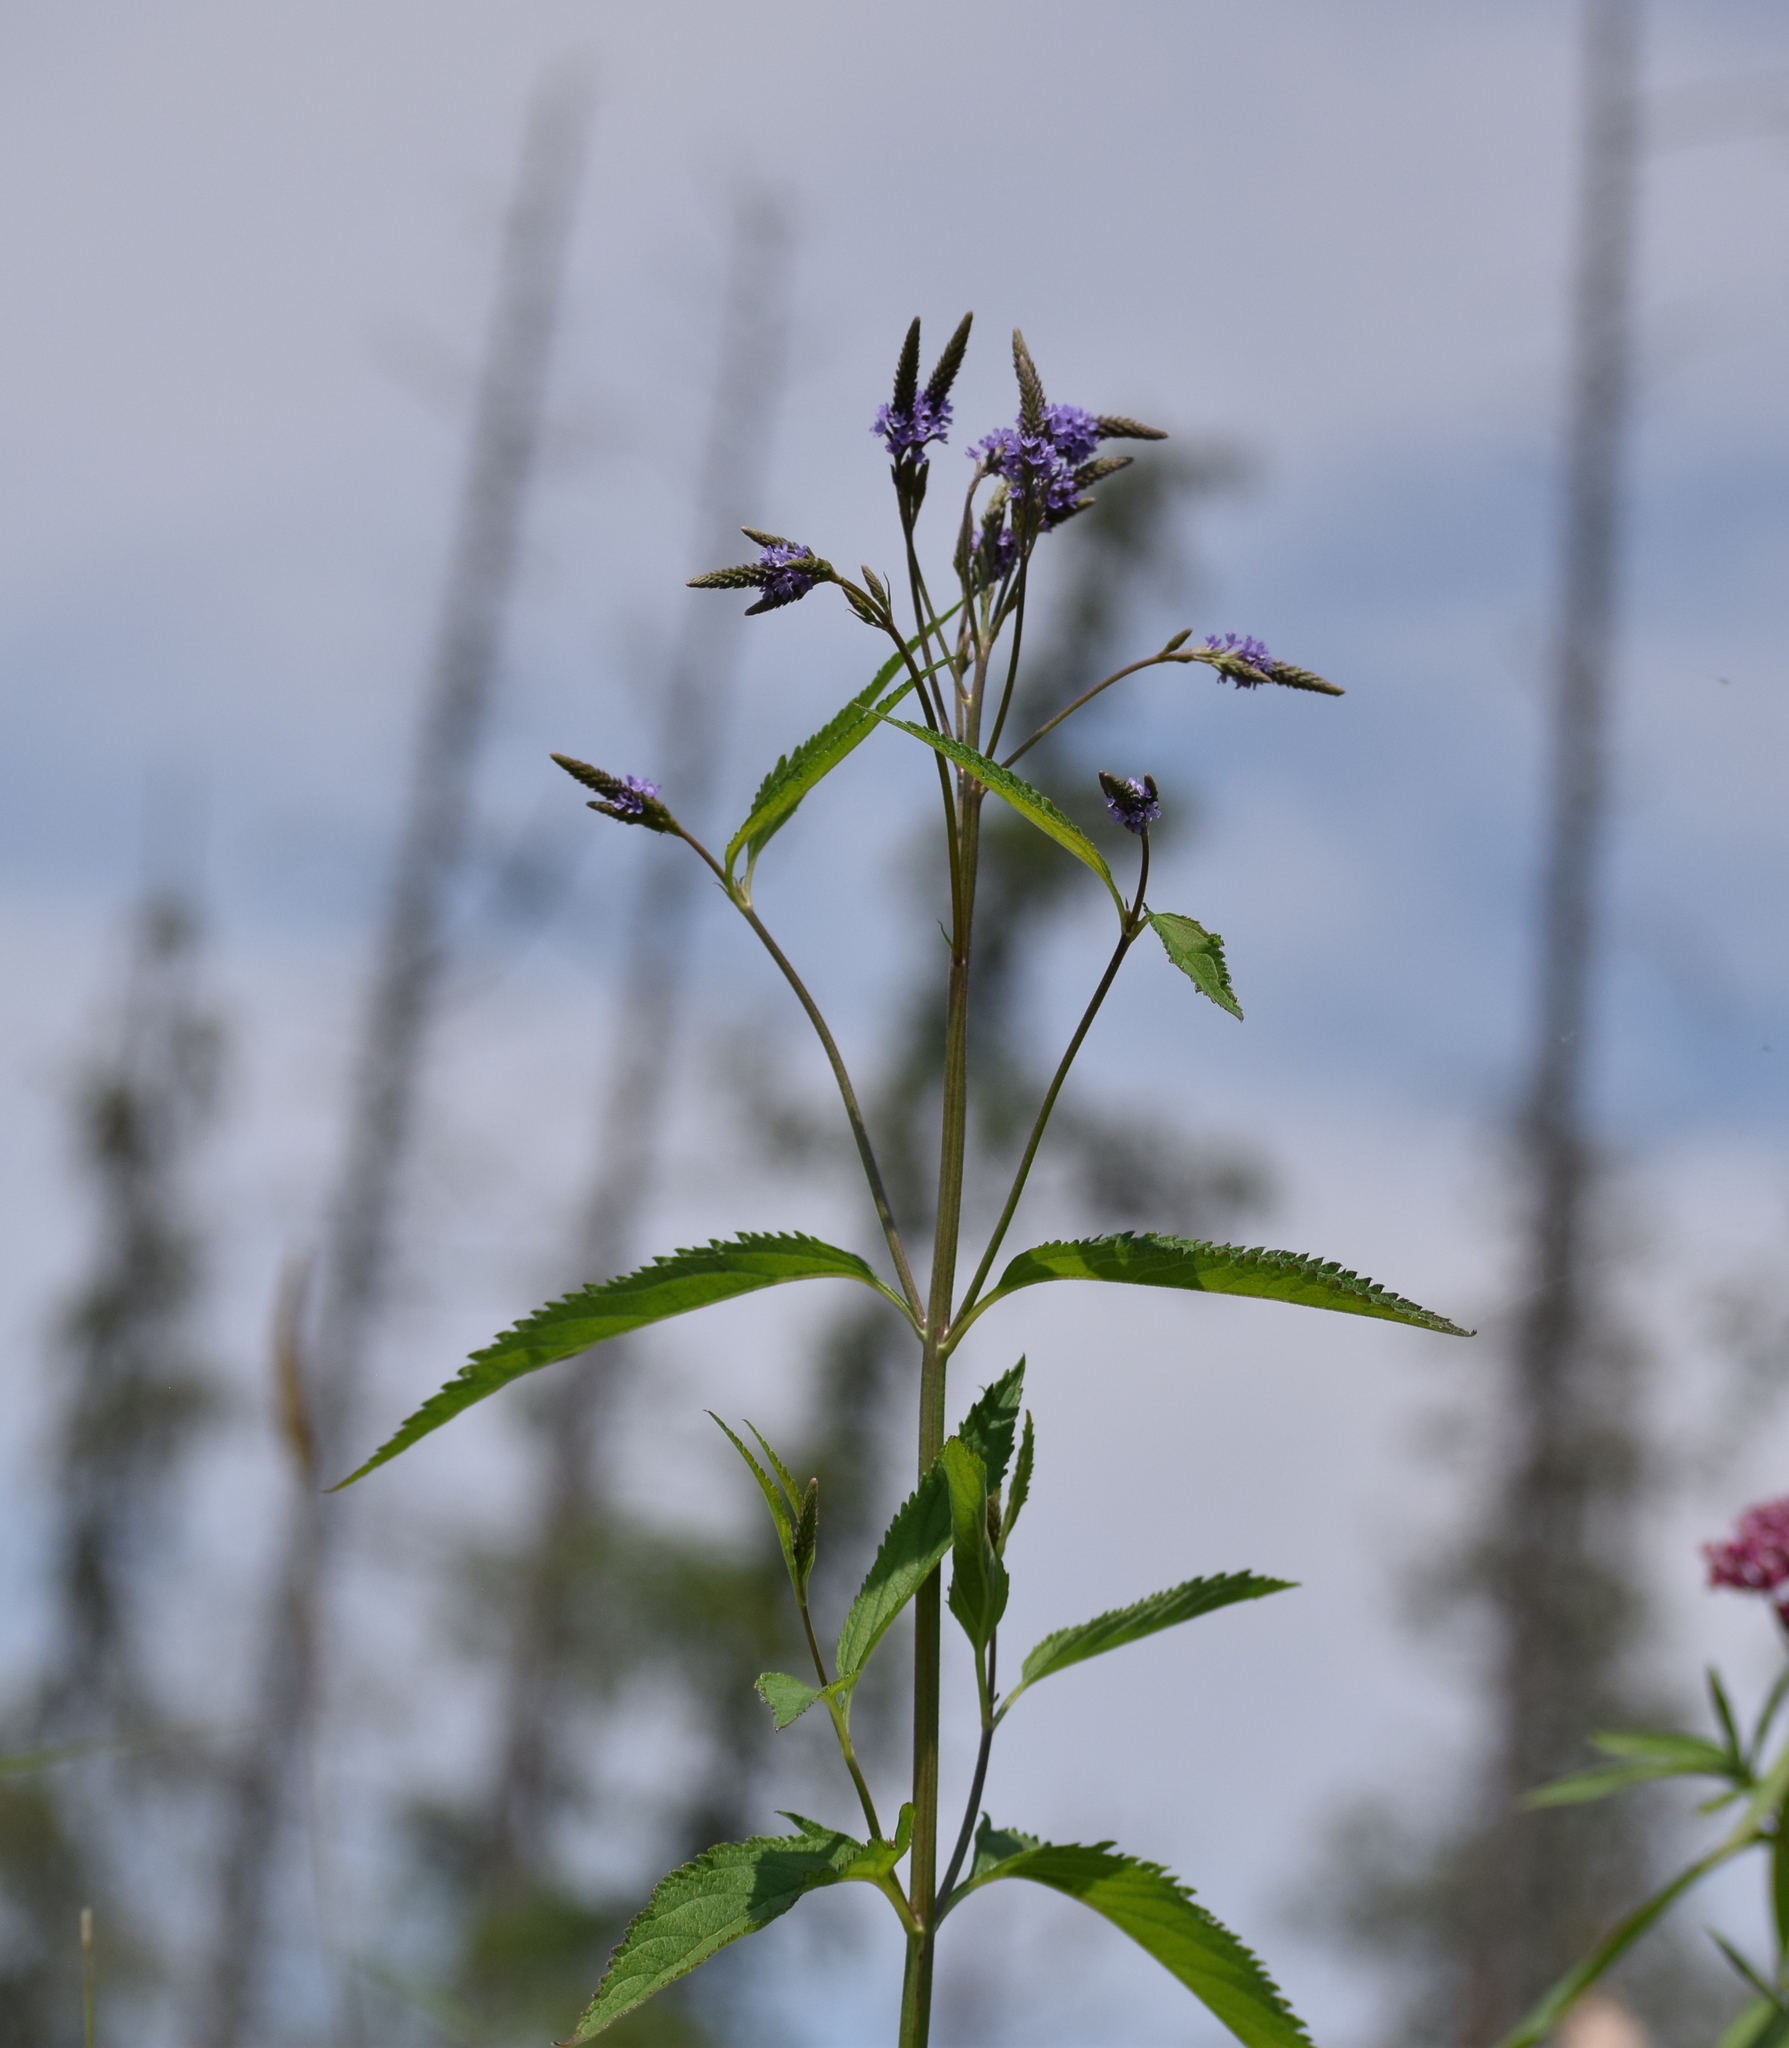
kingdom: Plantae
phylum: Tracheophyta
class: Magnoliopsida
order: Lamiales
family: Verbenaceae
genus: Verbena
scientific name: Verbena hastata
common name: American blue vervain
